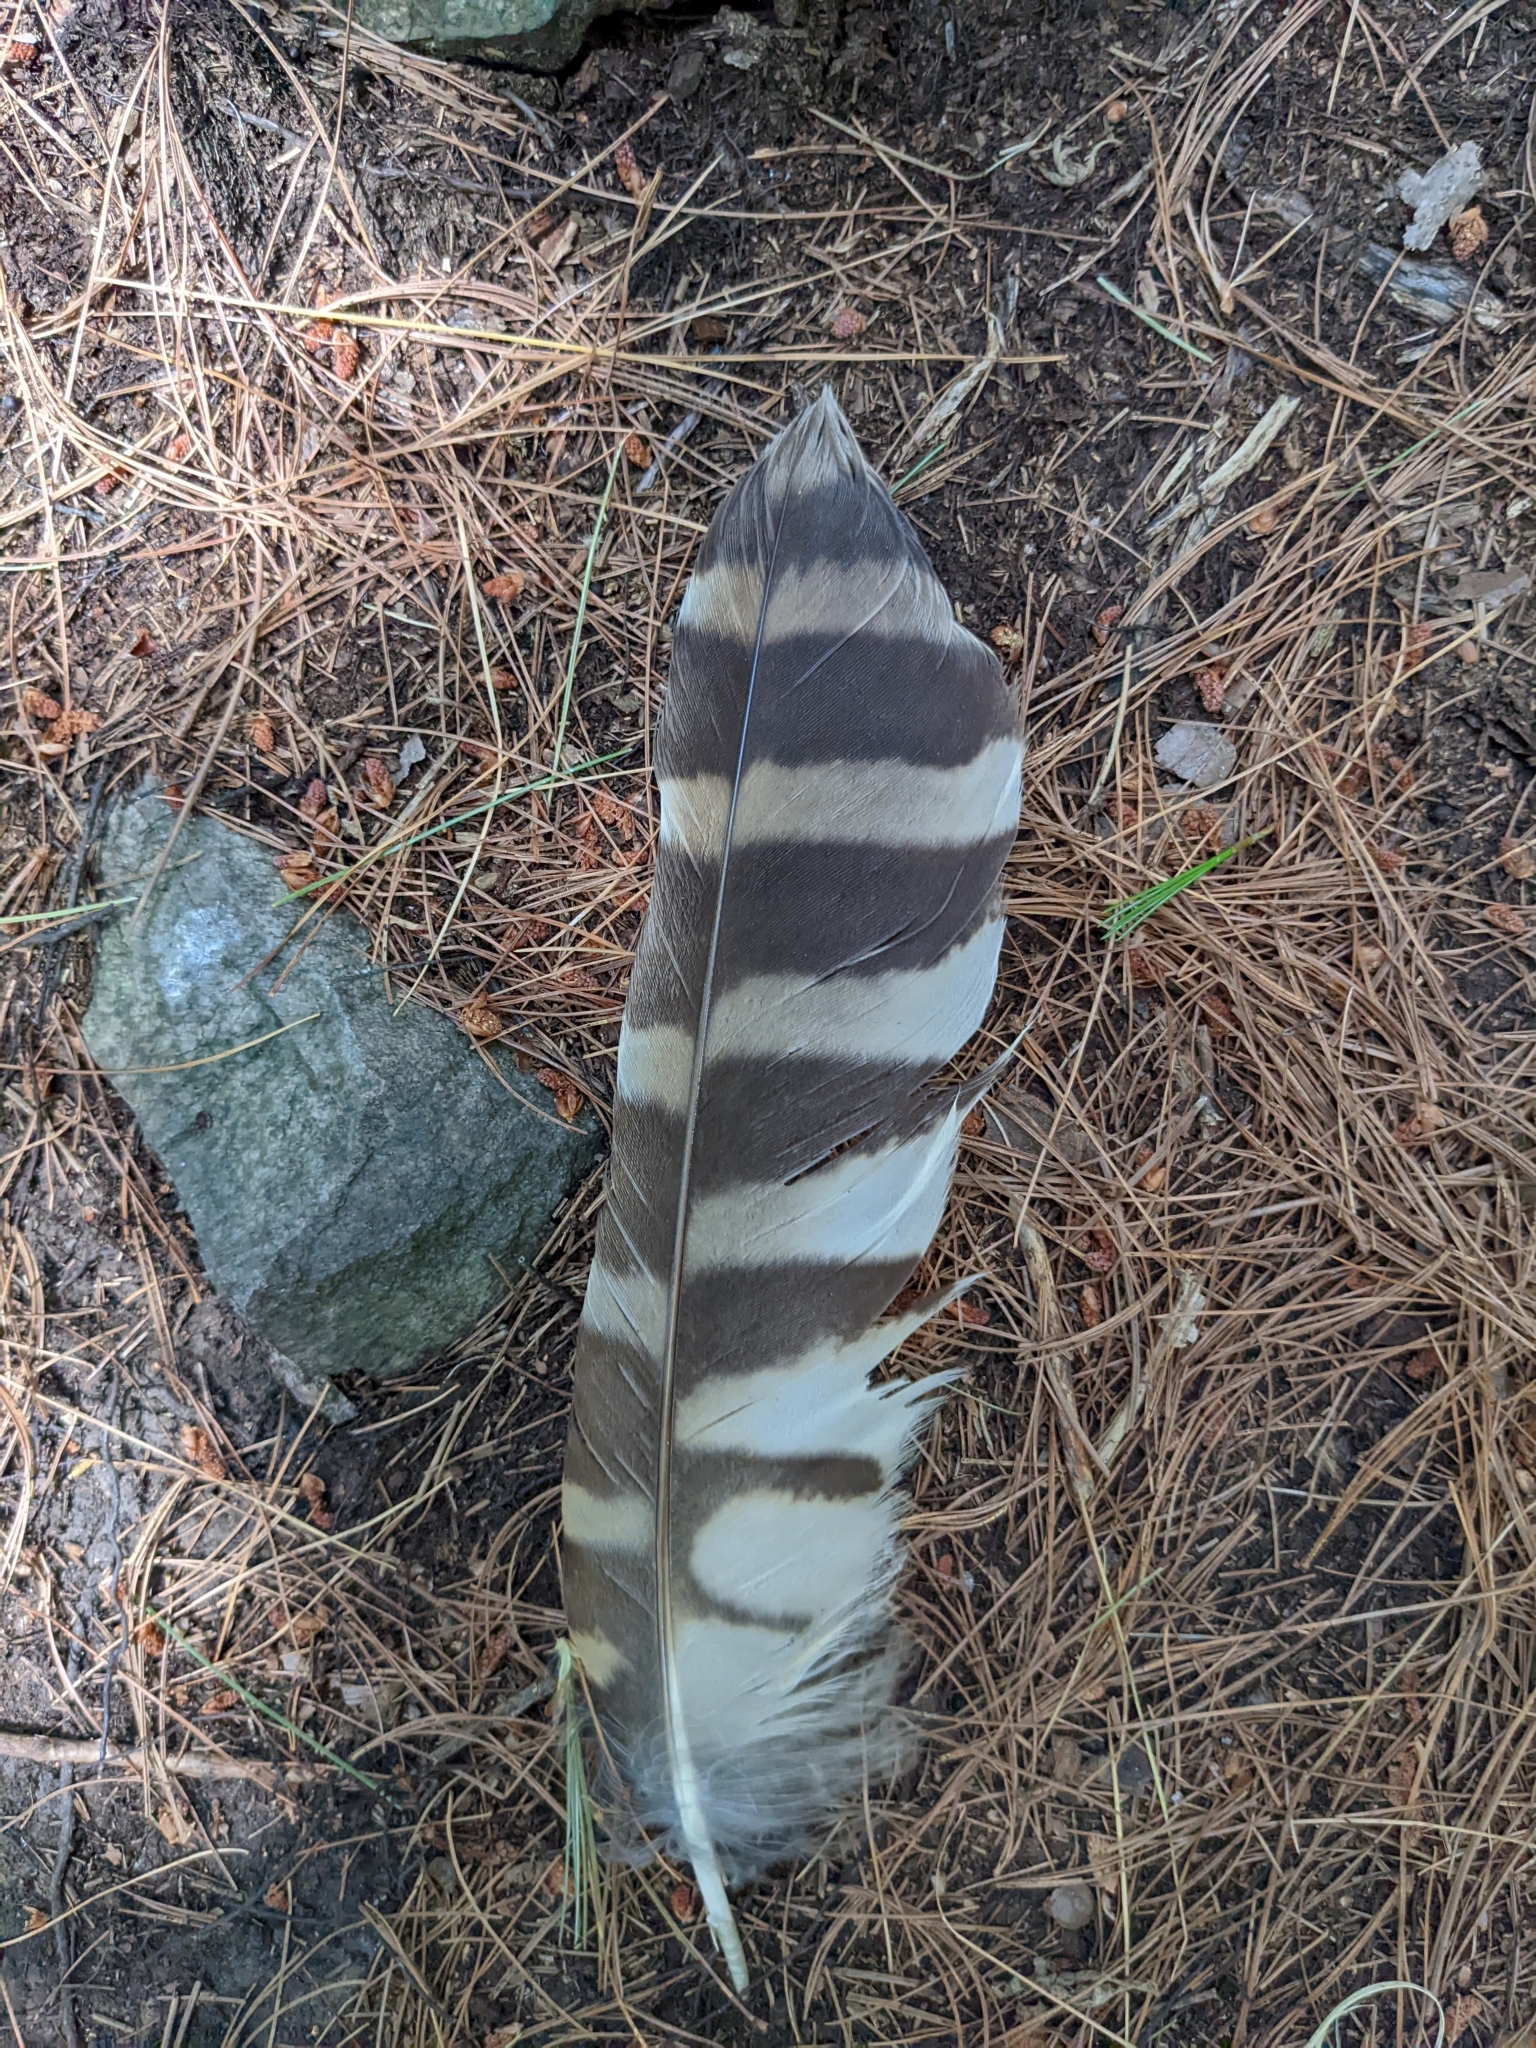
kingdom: Animalia
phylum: Chordata
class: Aves
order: Strigiformes
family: Strigidae
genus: Strix
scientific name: Strix varia
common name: Barred owl
